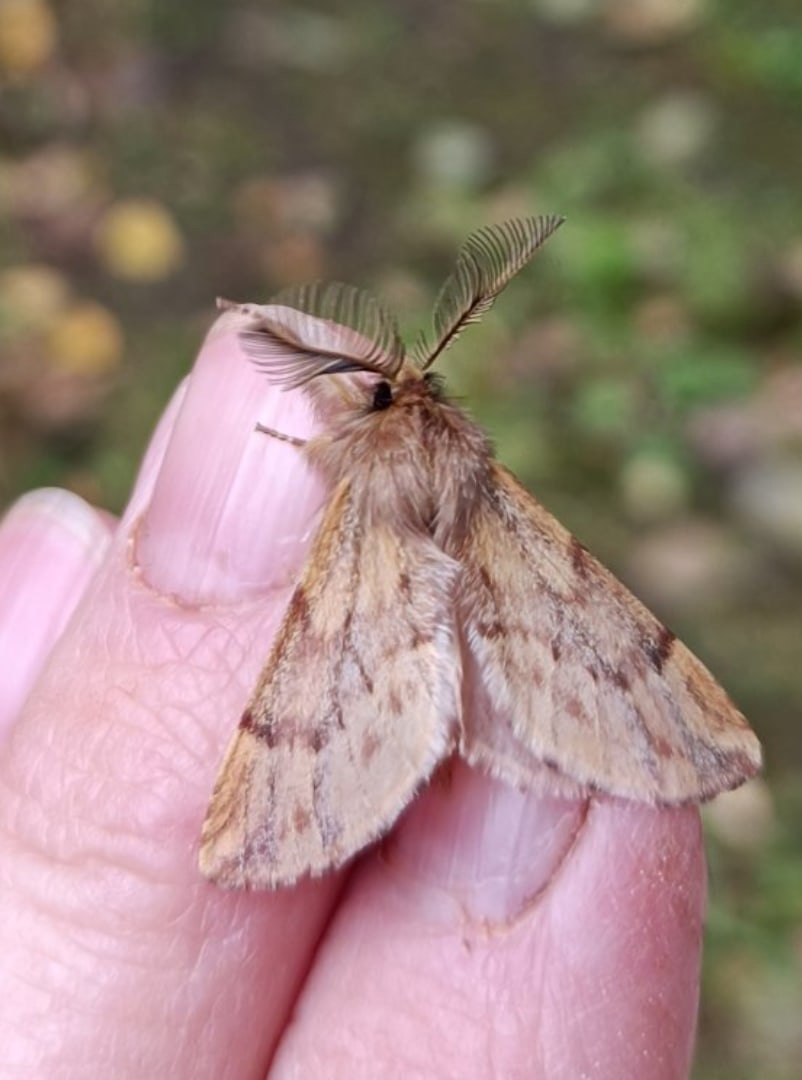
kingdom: Animalia
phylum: Arthropoda
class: Insecta
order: Lepidoptera
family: Notodontidae
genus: Ptilophora
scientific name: Ptilophora plumigera
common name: Plumed prominent
